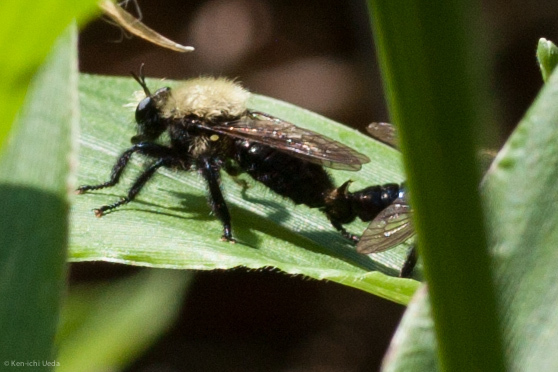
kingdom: Animalia
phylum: Arthropoda
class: Insecta
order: Diptera
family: Asilidae
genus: Laphria
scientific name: Laphria flavicollis
